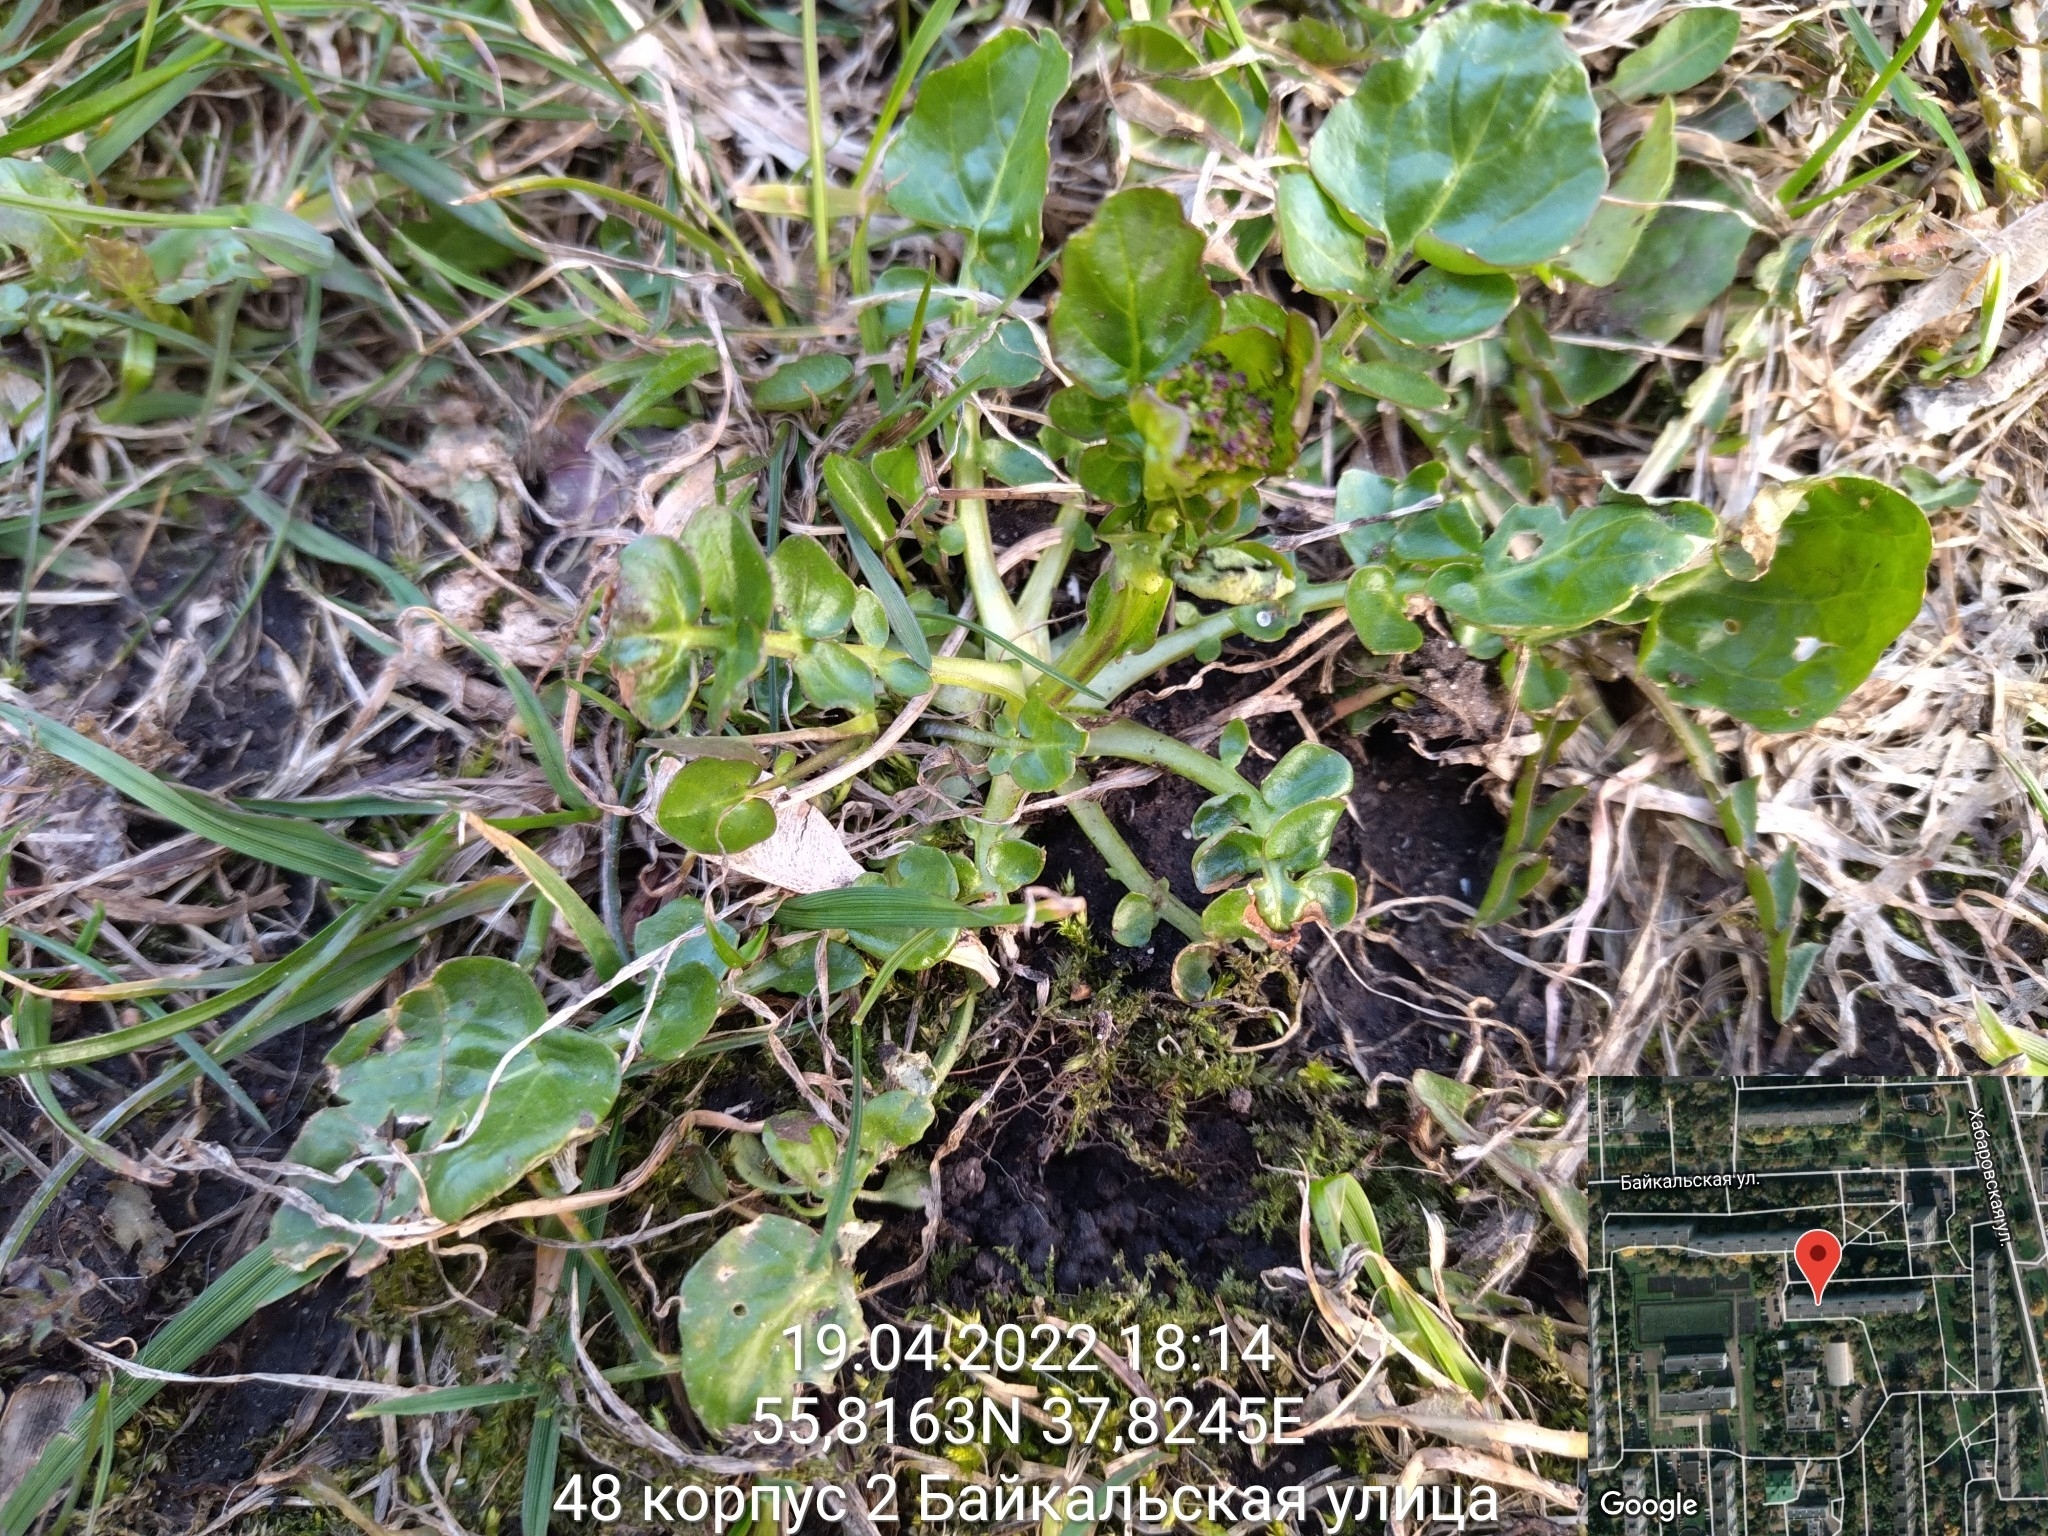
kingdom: Plantae
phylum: Tracheophyta
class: Magnoliopsida
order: Brassicales
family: Brassicaceae
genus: Barbarea
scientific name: Barbarea vulgaris
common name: Cressy-greens
